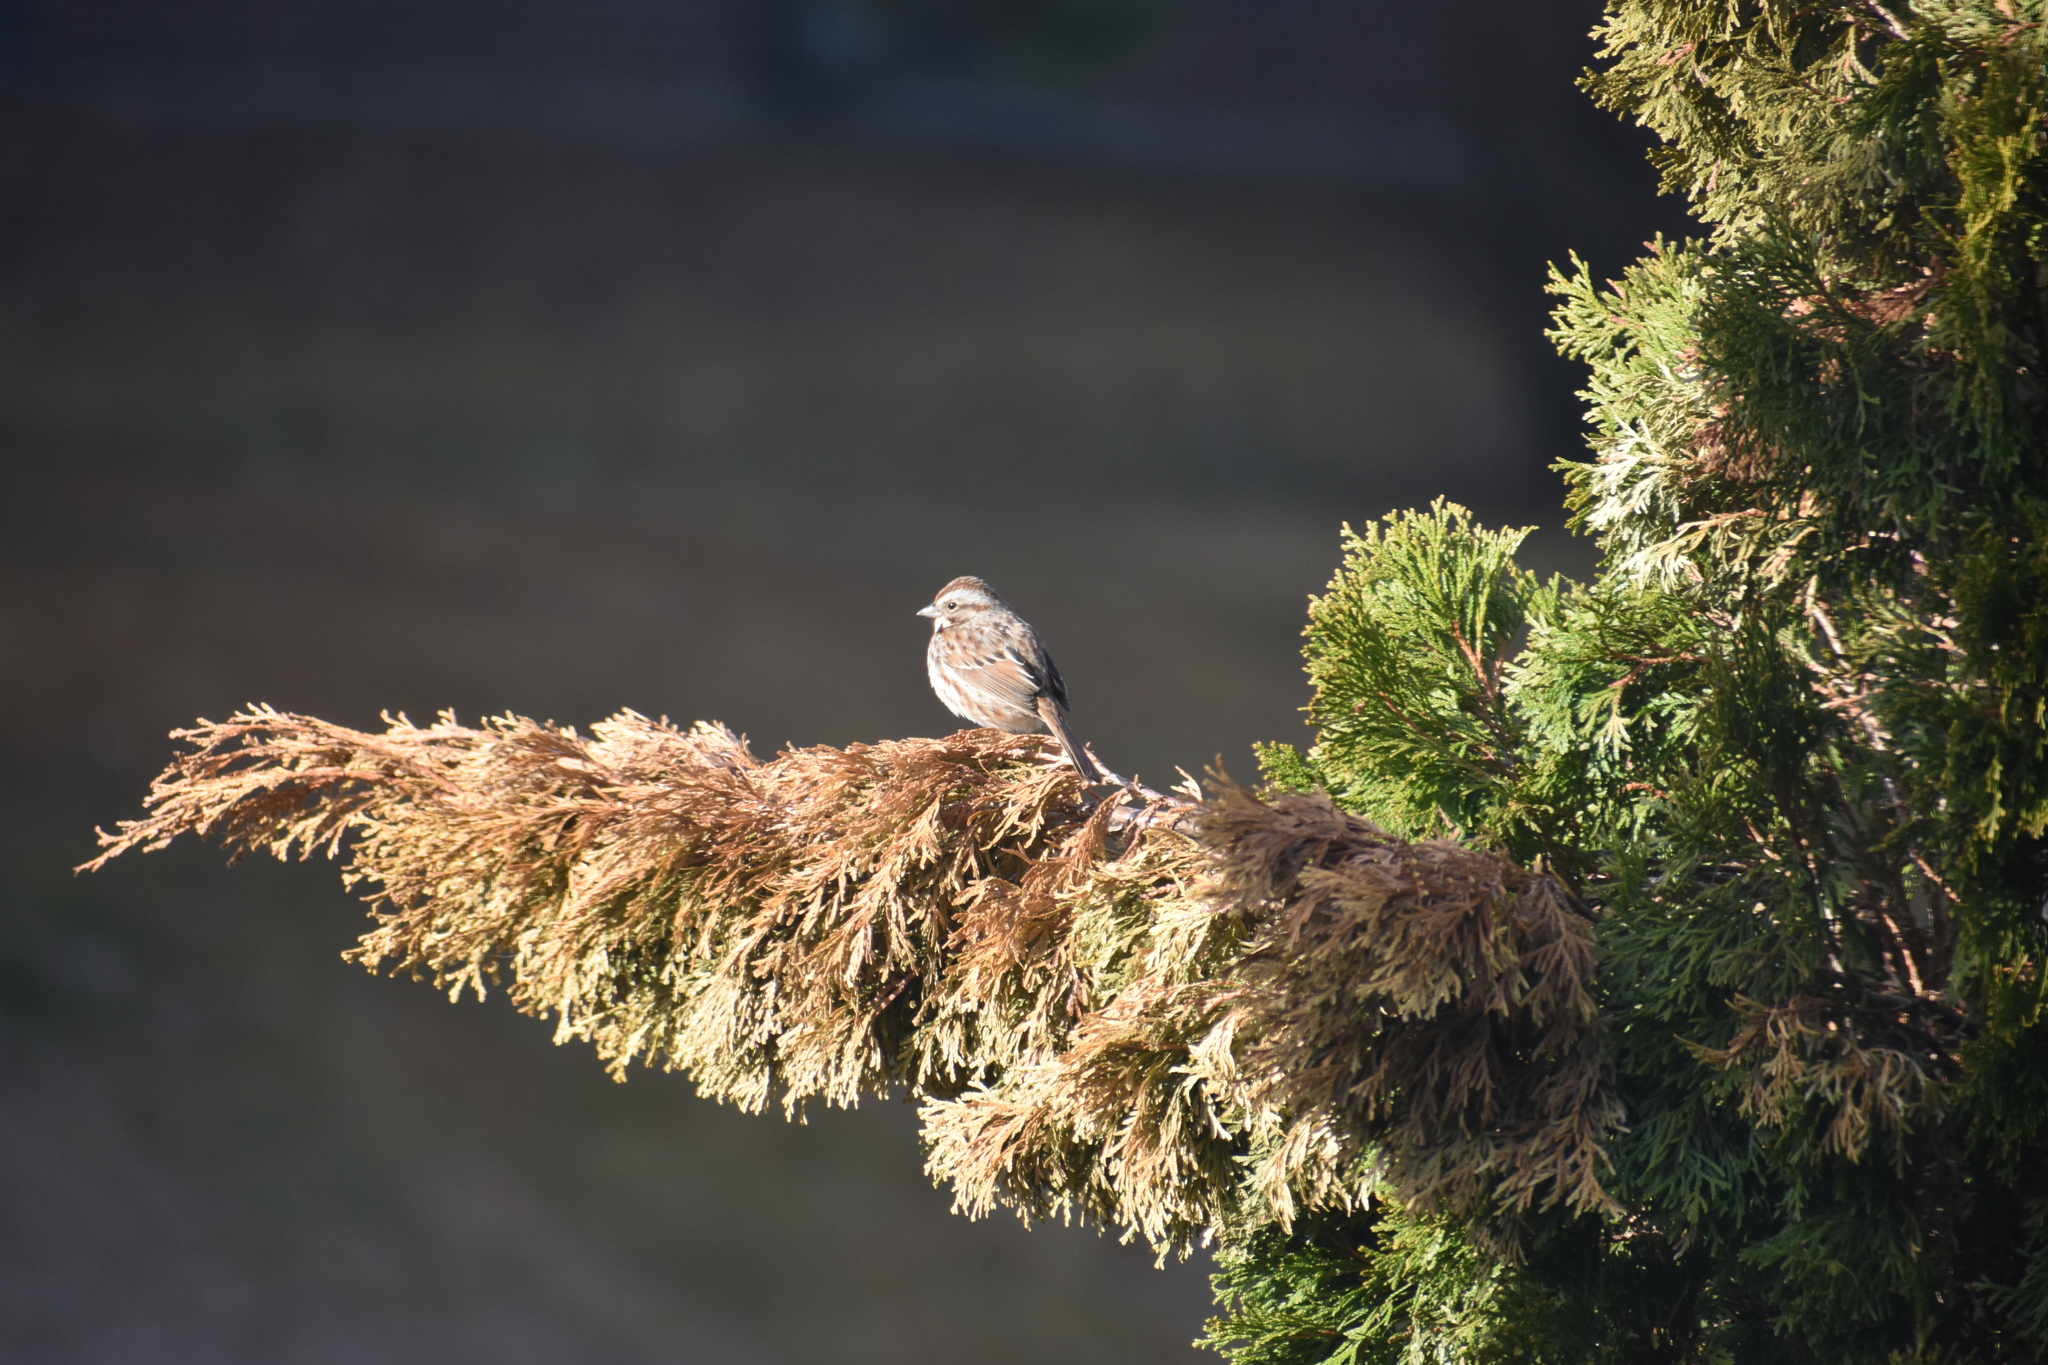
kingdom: Animalia
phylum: Chordata
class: Aves
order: Passeriformes
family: Passerellidae
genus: Melospiza
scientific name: Melospiza melodia
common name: Song sparrow
